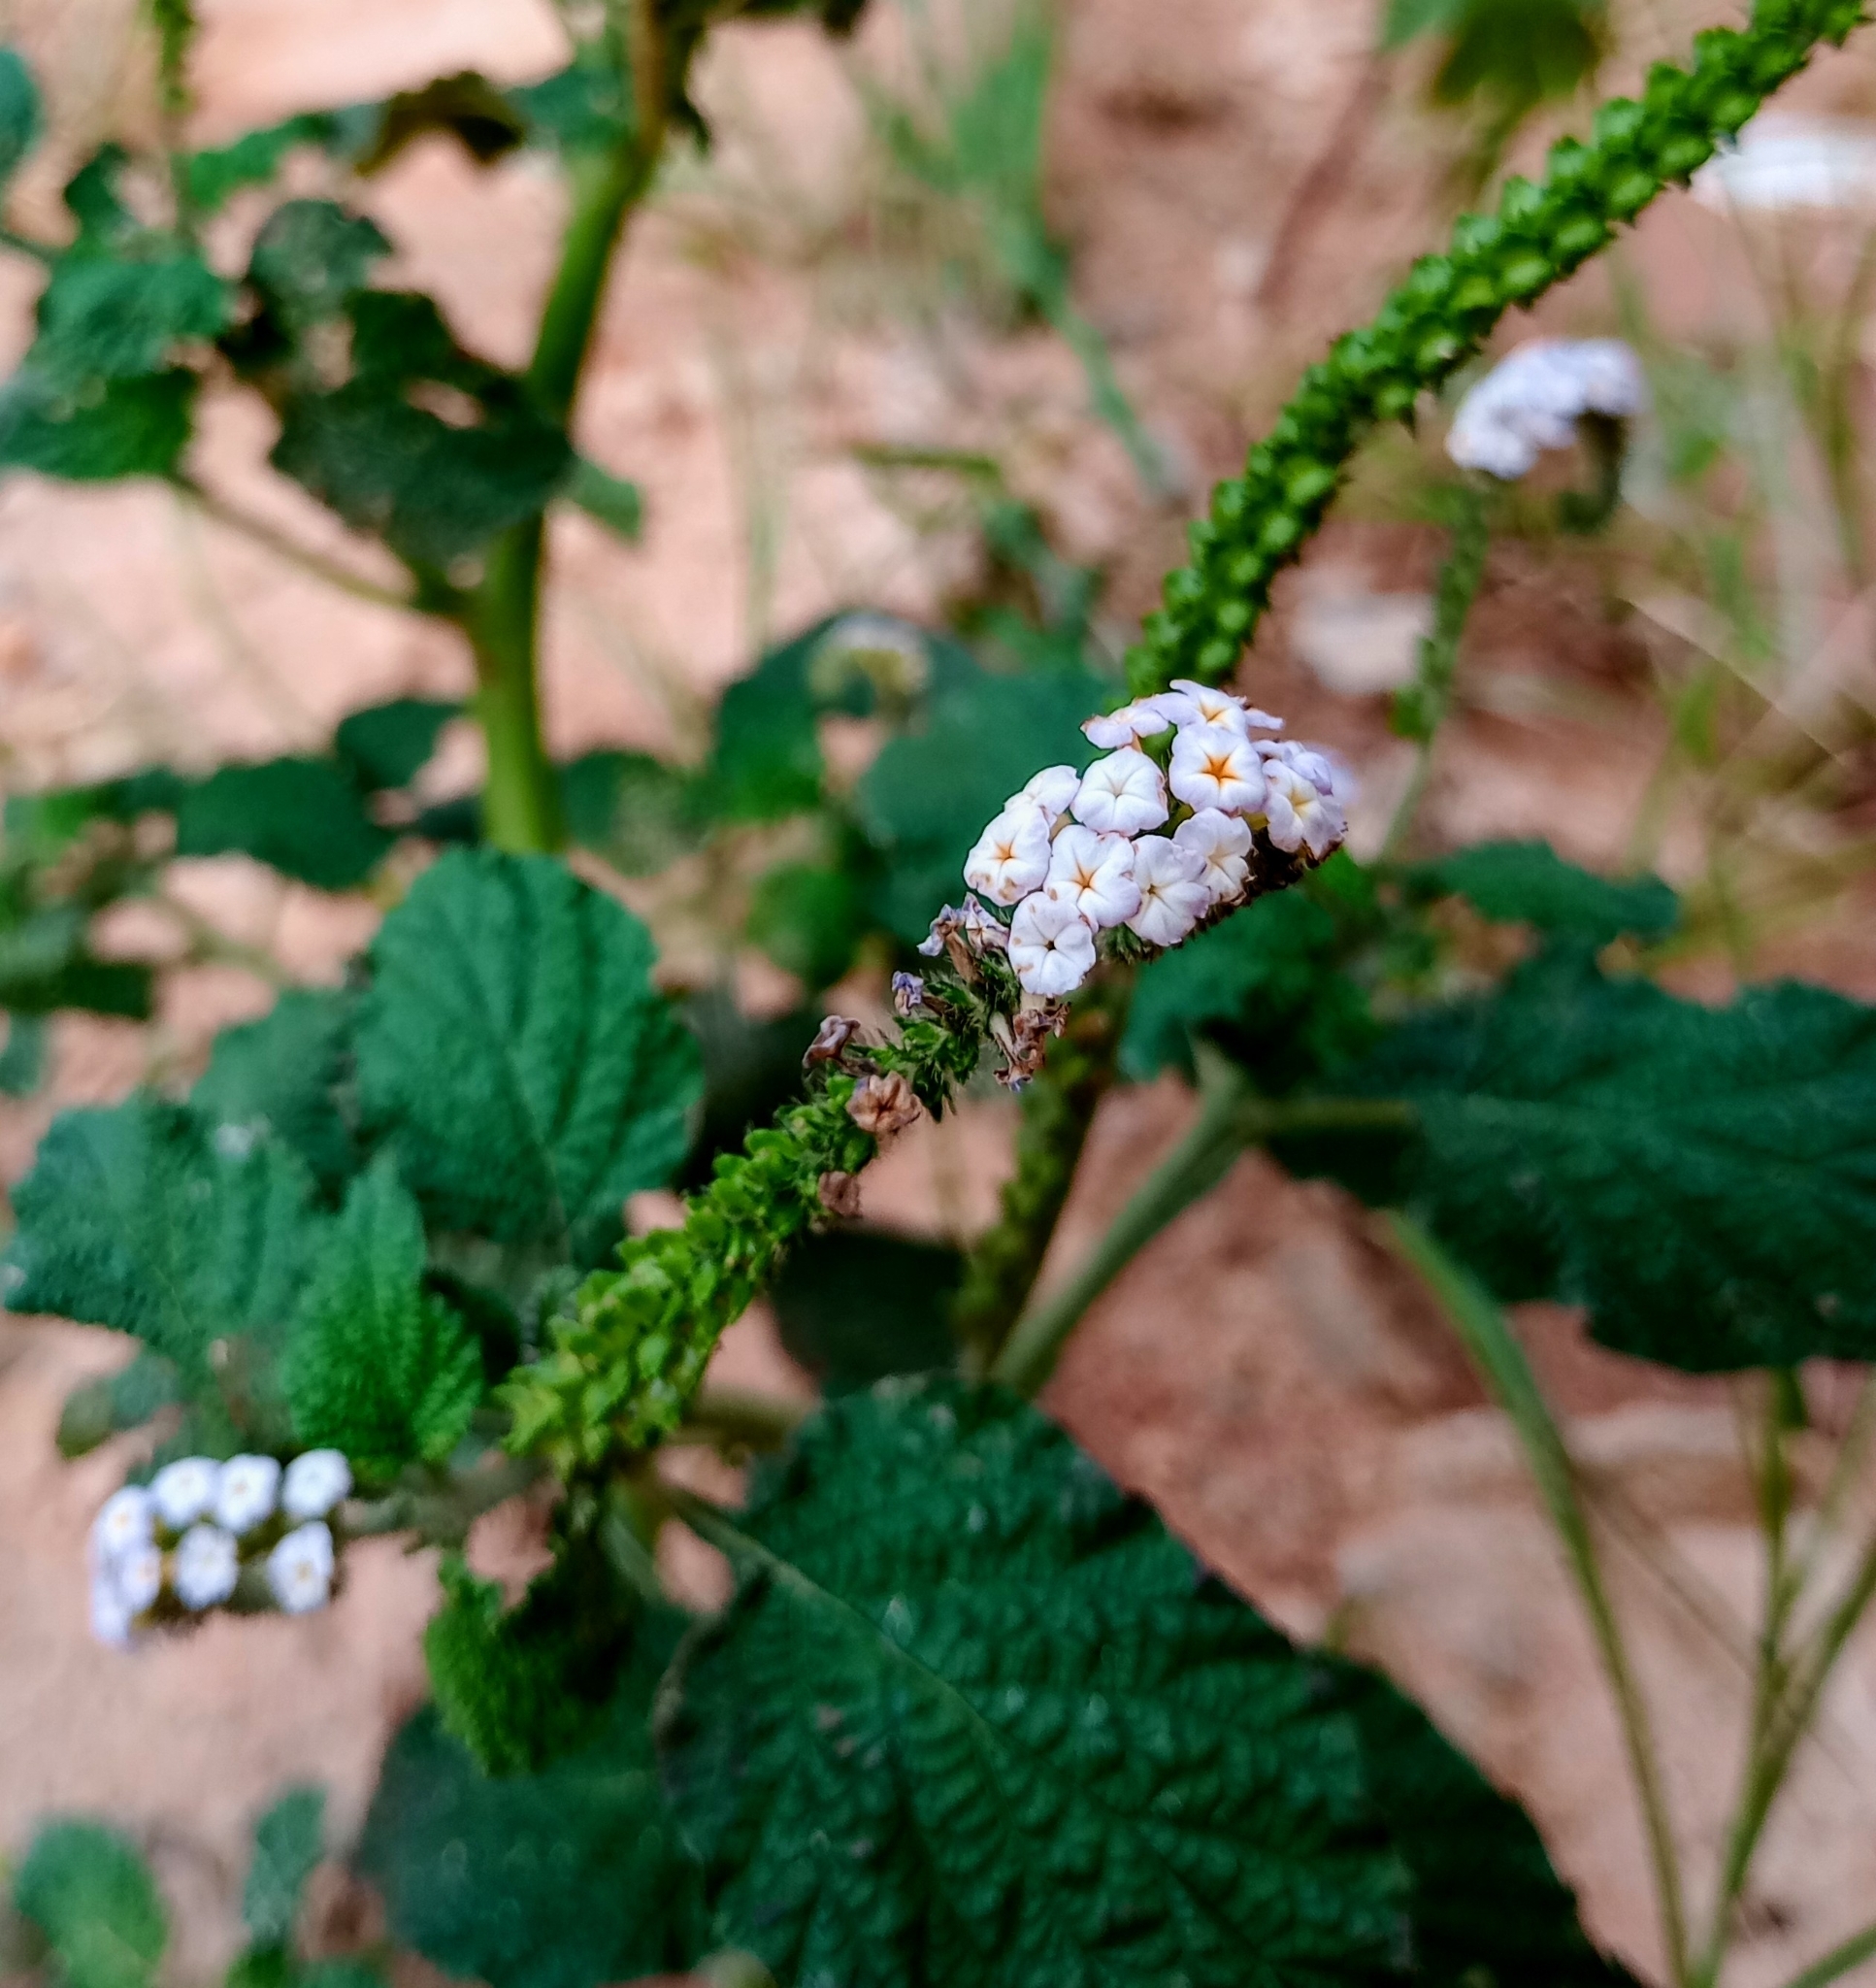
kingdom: Plantae
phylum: Tracheophyta
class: Magnoliopsida
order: Boraginales
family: Heliotropiaceae
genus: Heliotropium
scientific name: Heliotropium indicum
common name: Indian heliotrope
